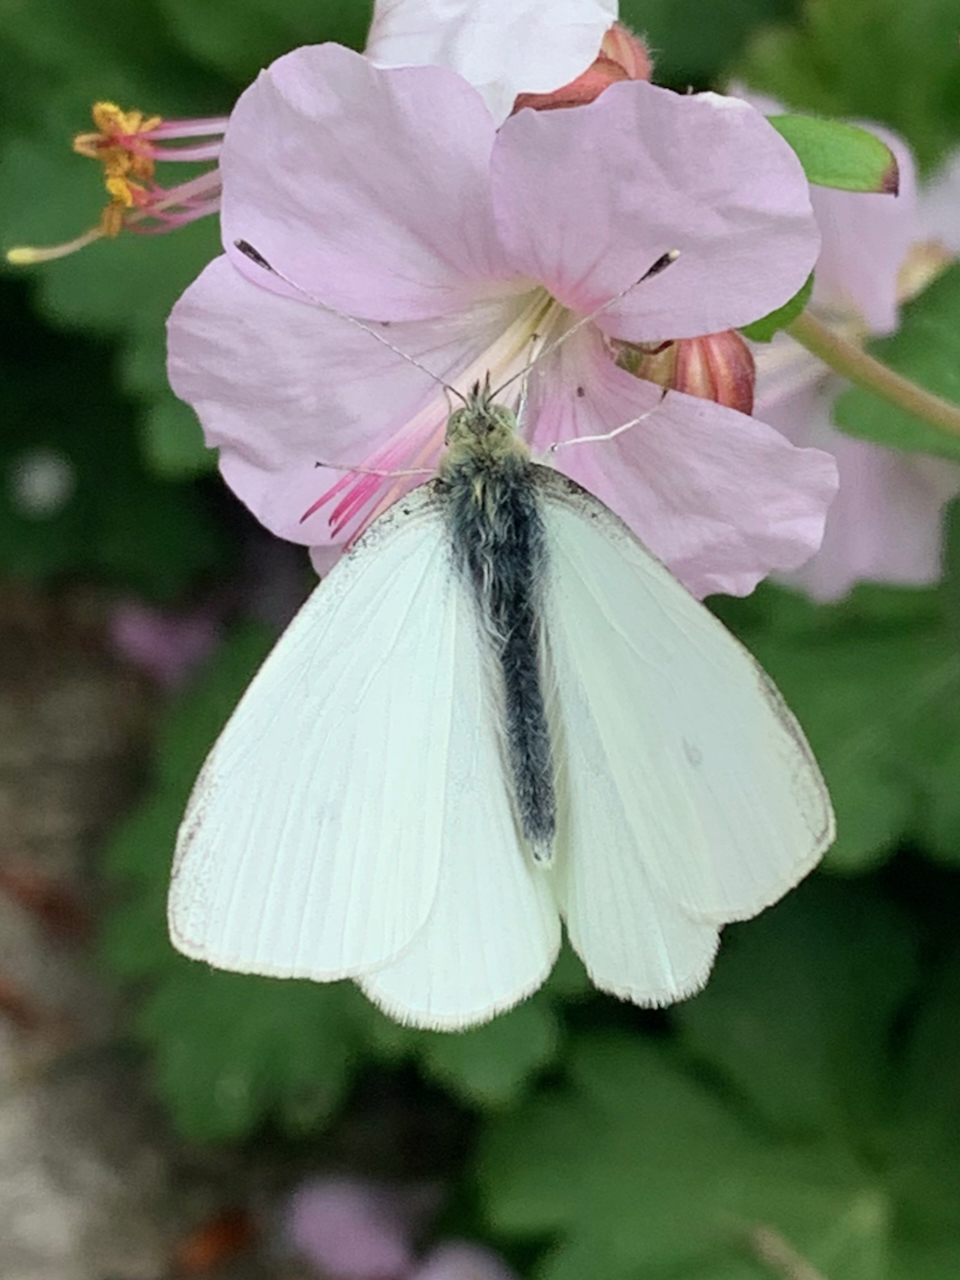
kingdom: Animalia
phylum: Arthropoda
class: Insecta
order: Lepidoptera
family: Pieridae
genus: Pieris
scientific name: Pieris rapae
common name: Small white
